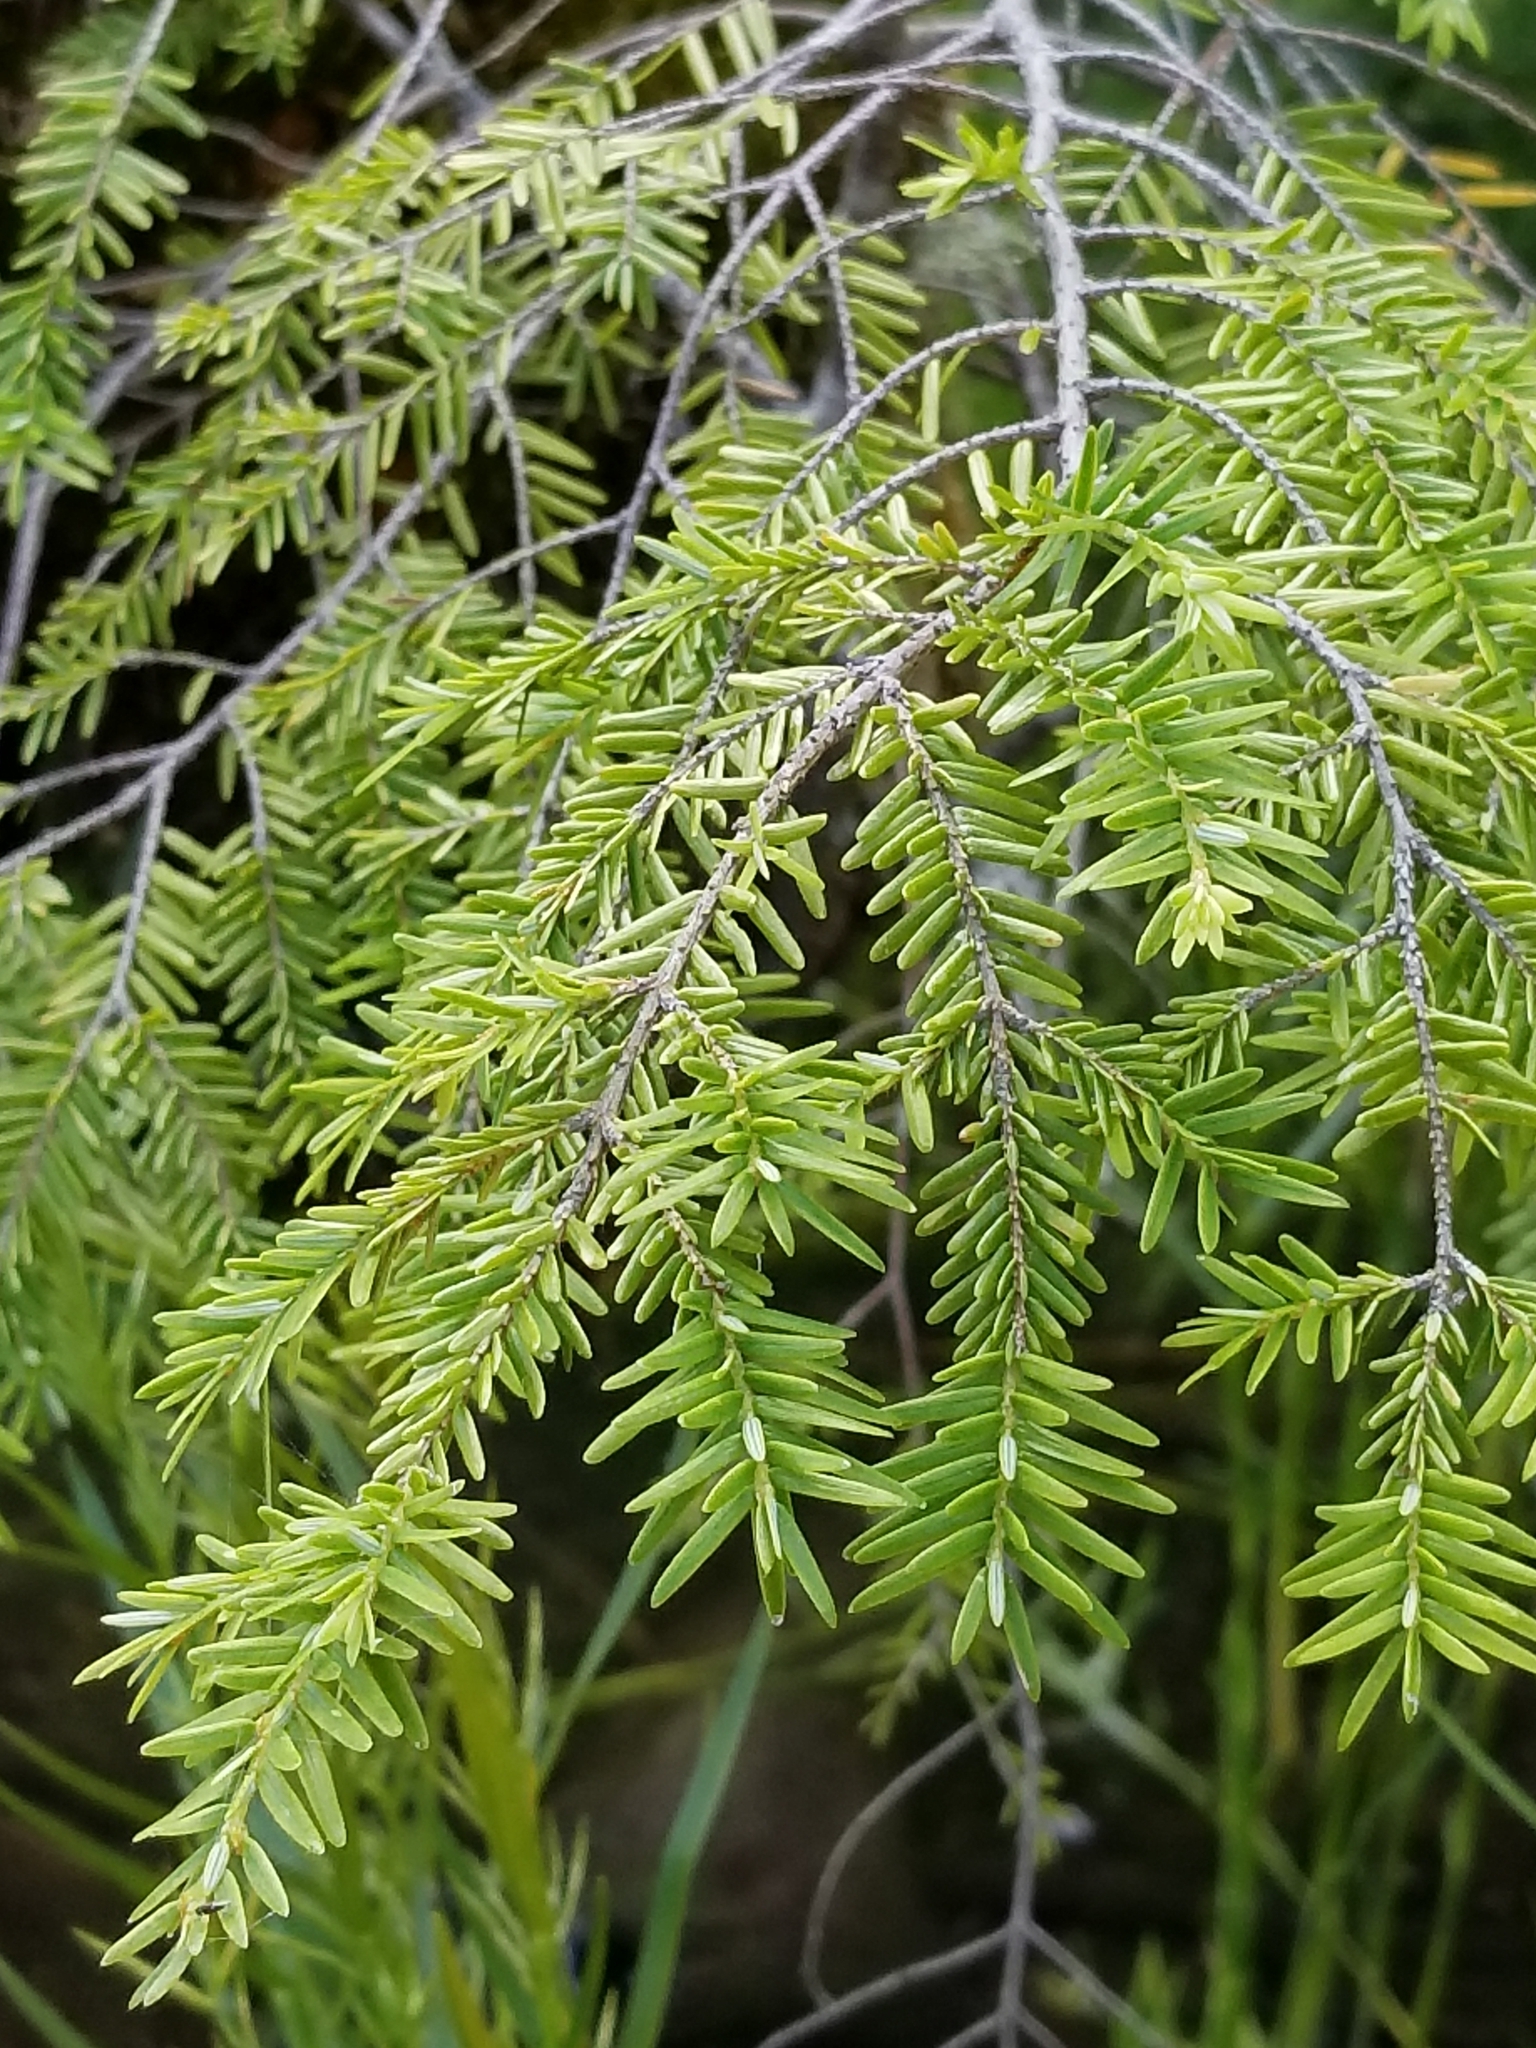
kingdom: Plantae
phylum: Tracheophyta
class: Pinopsida
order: Pinales
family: Pinaceae
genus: Tsuga
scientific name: Tsuga canadensis
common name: Eastern hemlock
